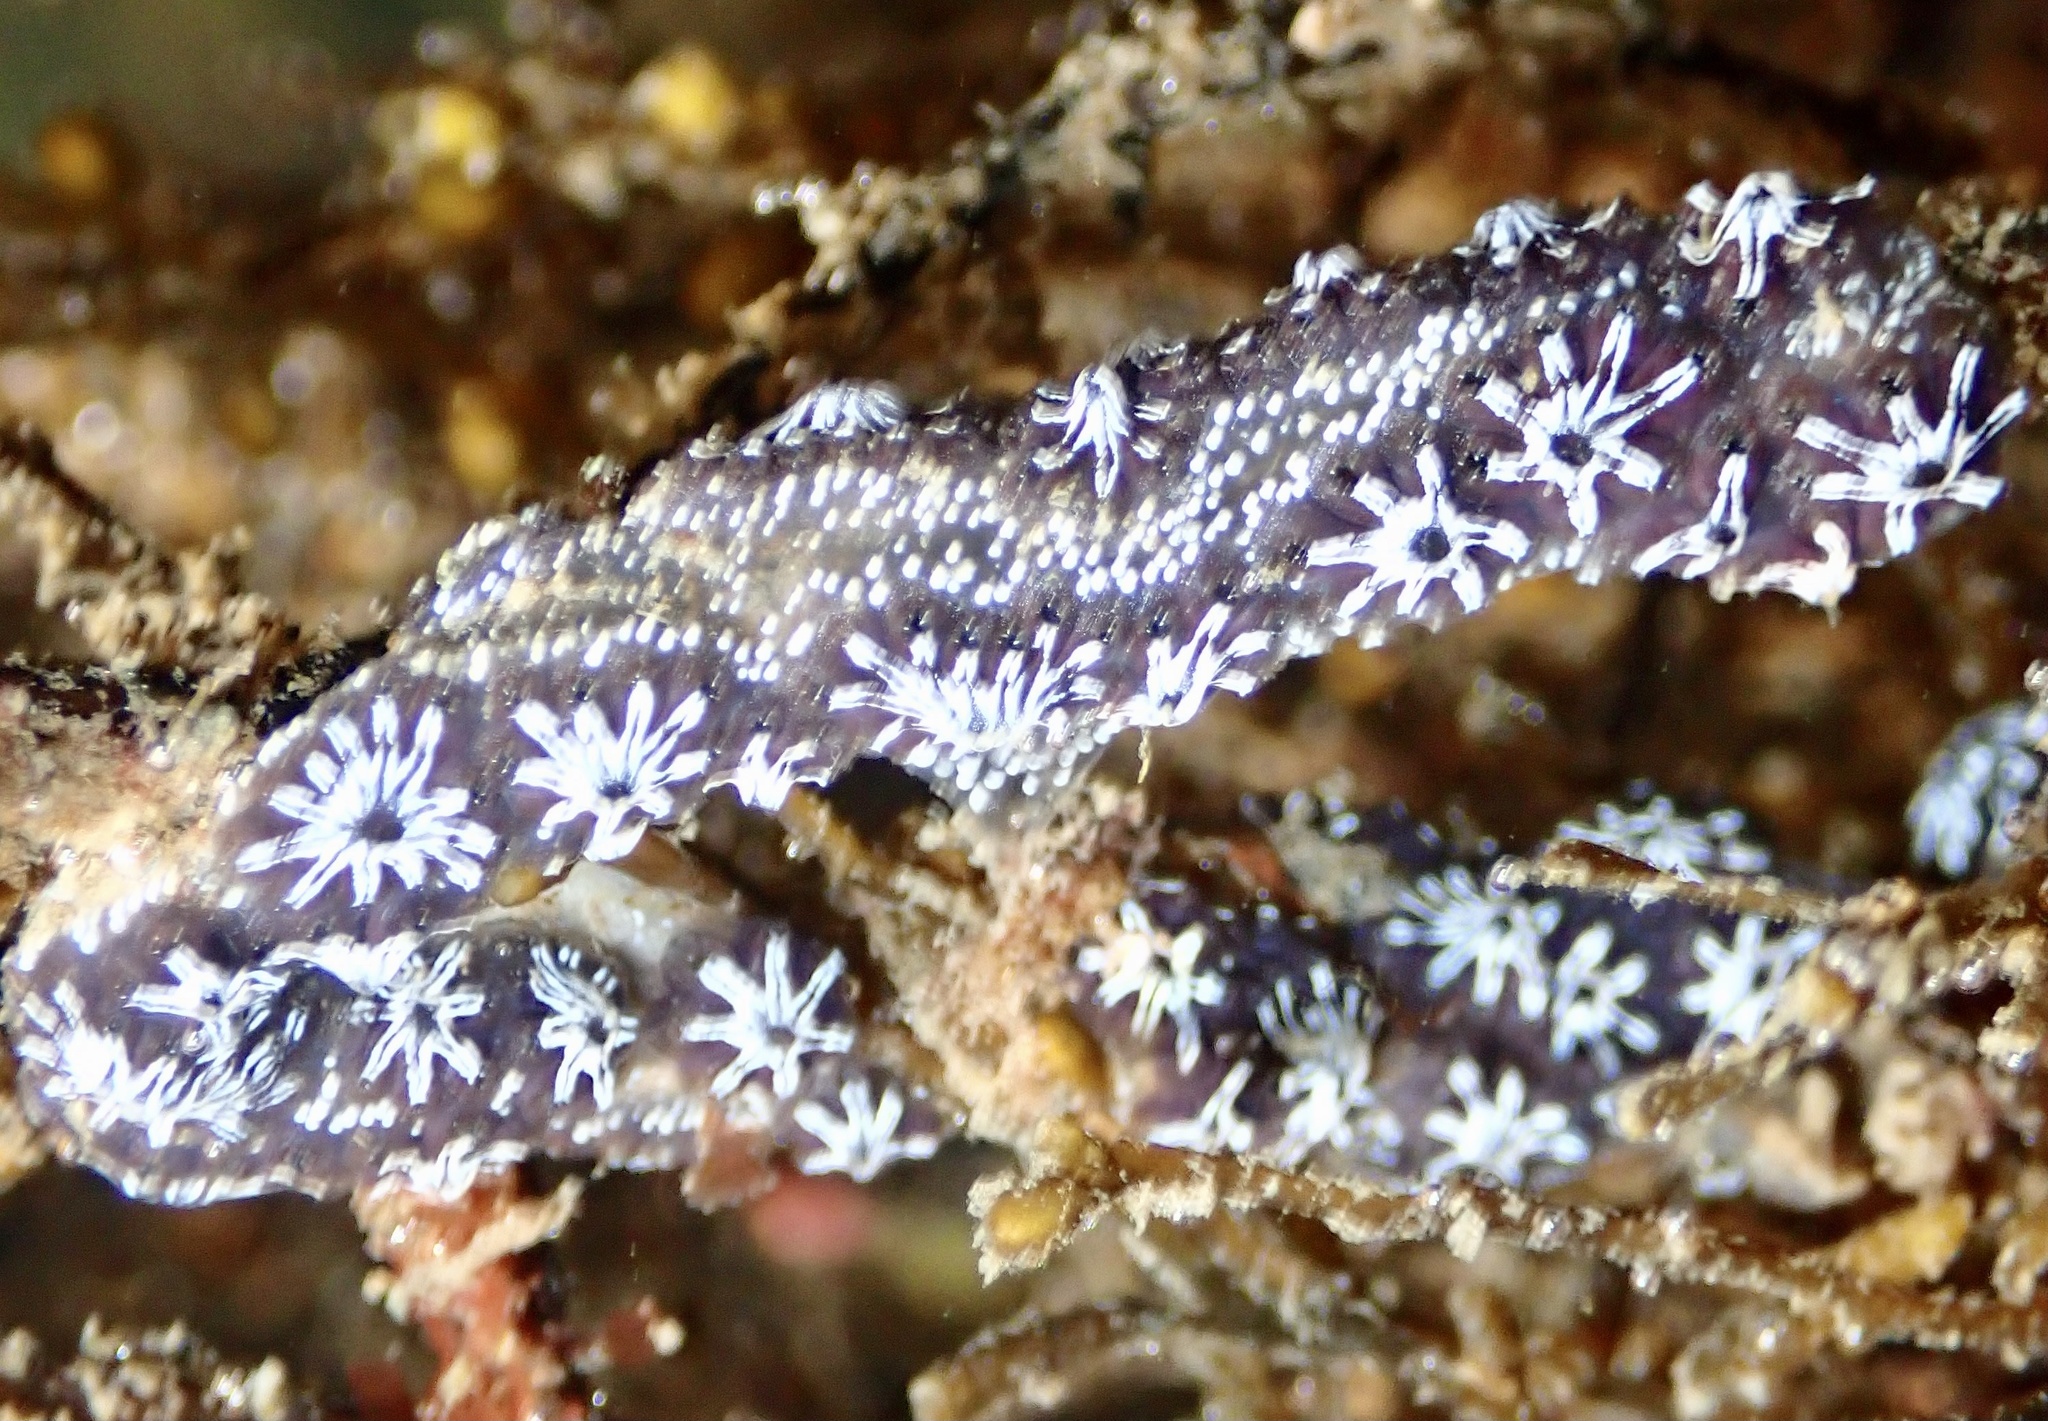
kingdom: Animalia
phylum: Chordata
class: Ascidiacea
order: Stolidobranchia
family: Styelidae
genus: Botryllus
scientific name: Botryllus schlosseri
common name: Golden star tunicate
